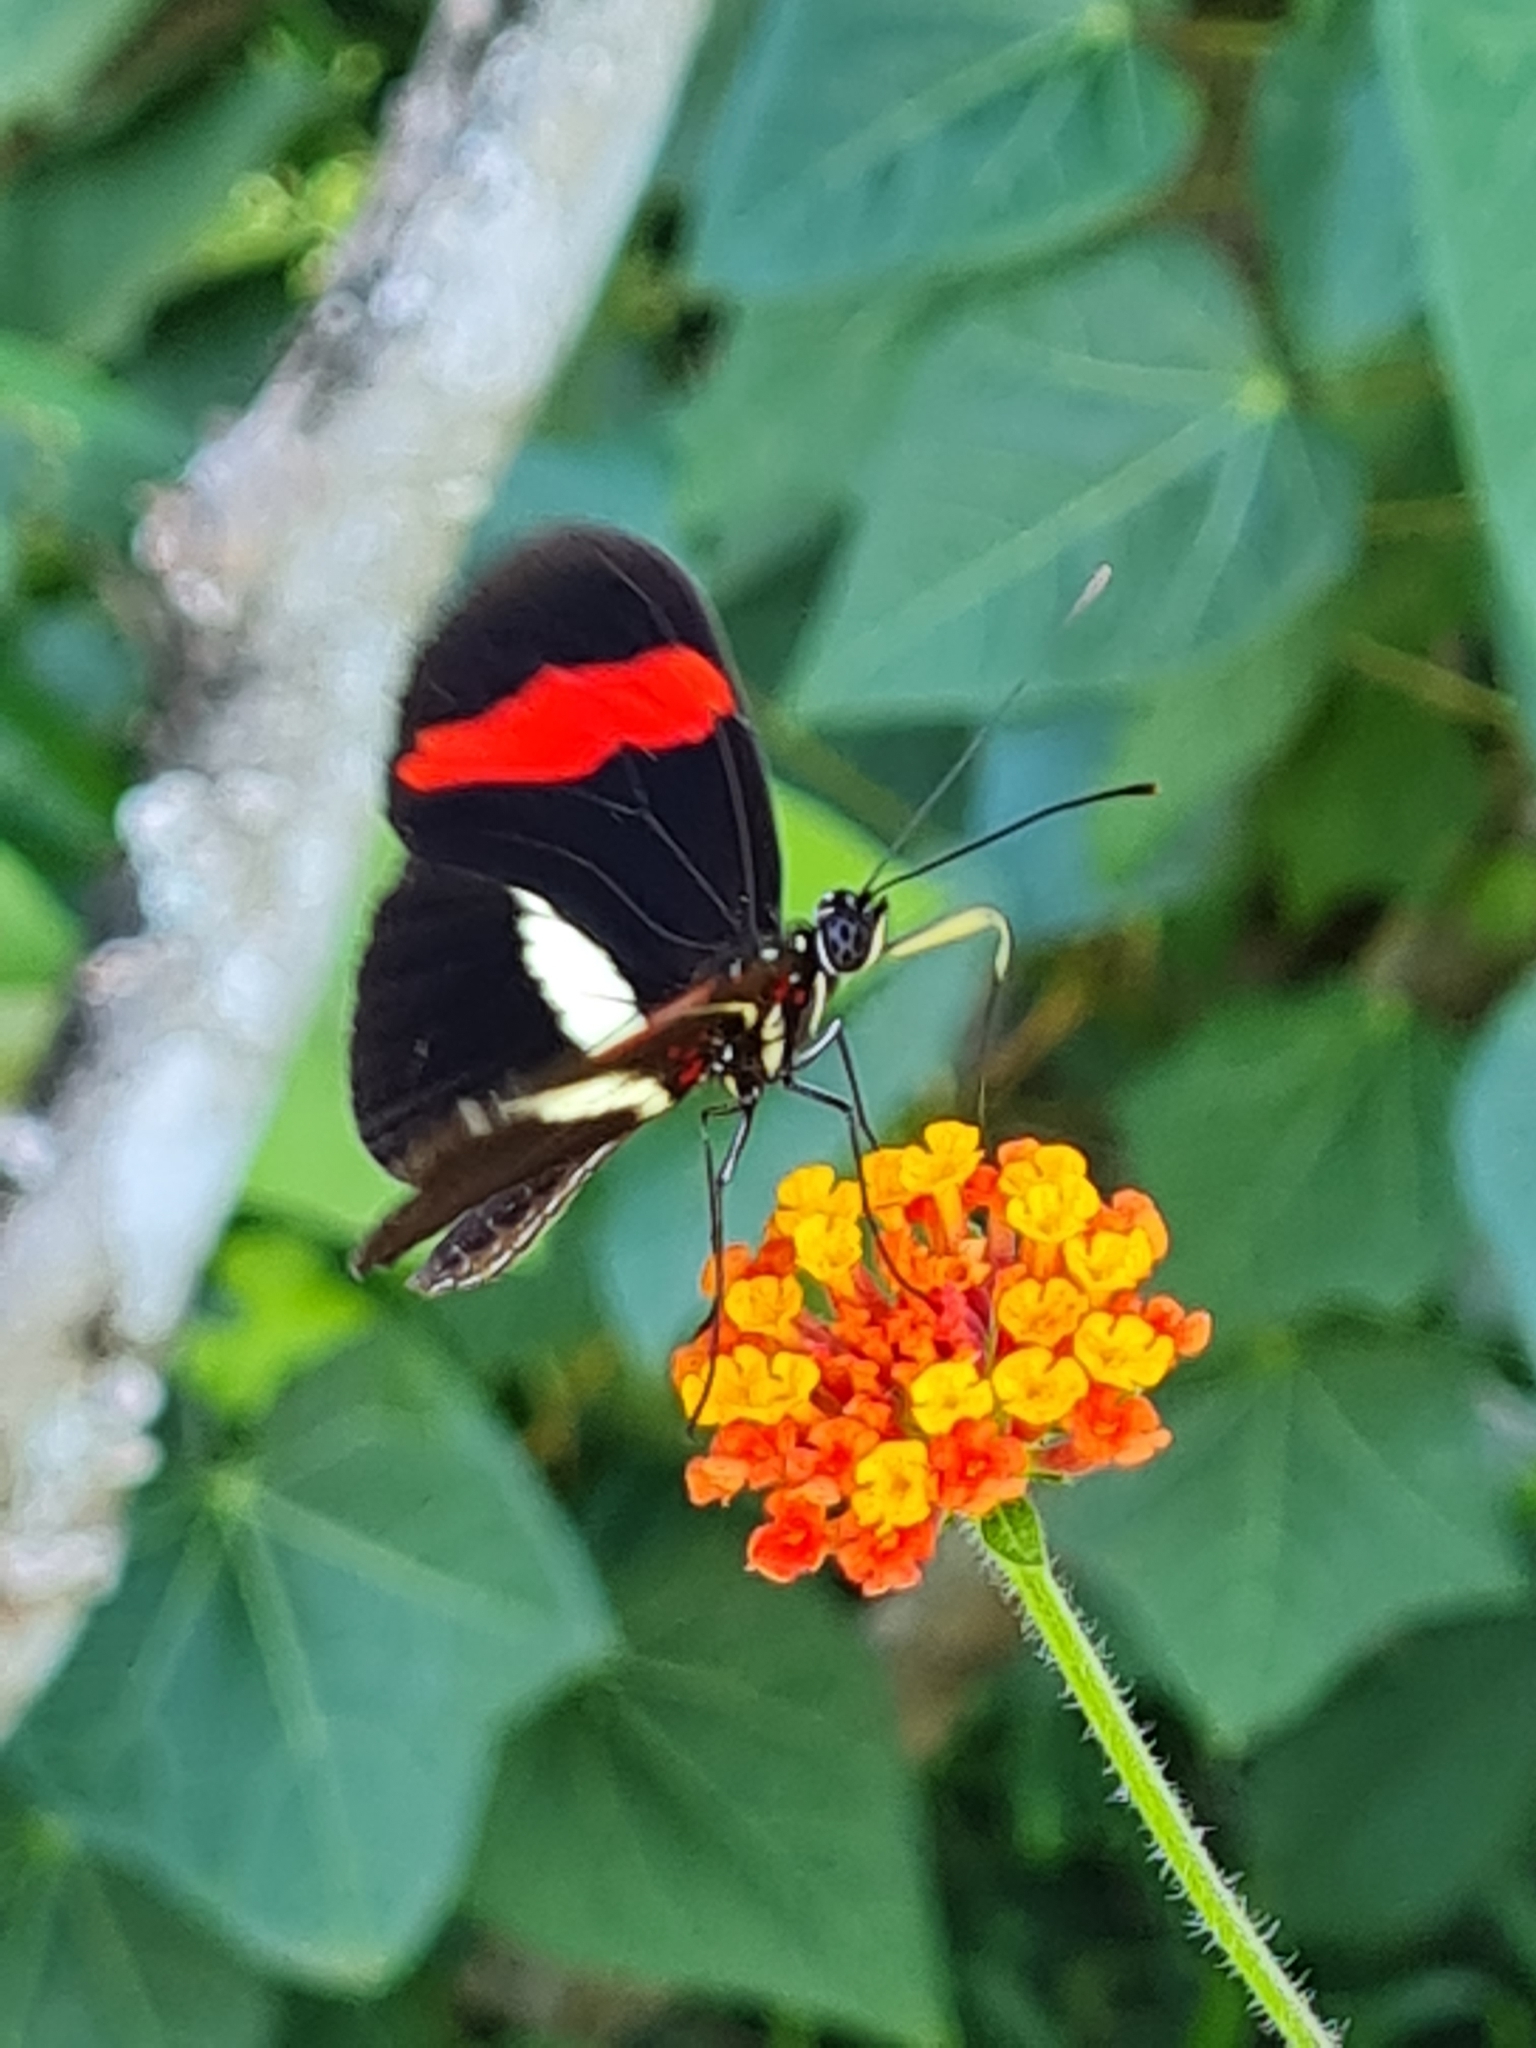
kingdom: Animalia
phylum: Arthropoda
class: Insecta
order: Lepidoptera
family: Nymphalidae
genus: Tirumala
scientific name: Tirumala petiverana
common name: Blue monarch
